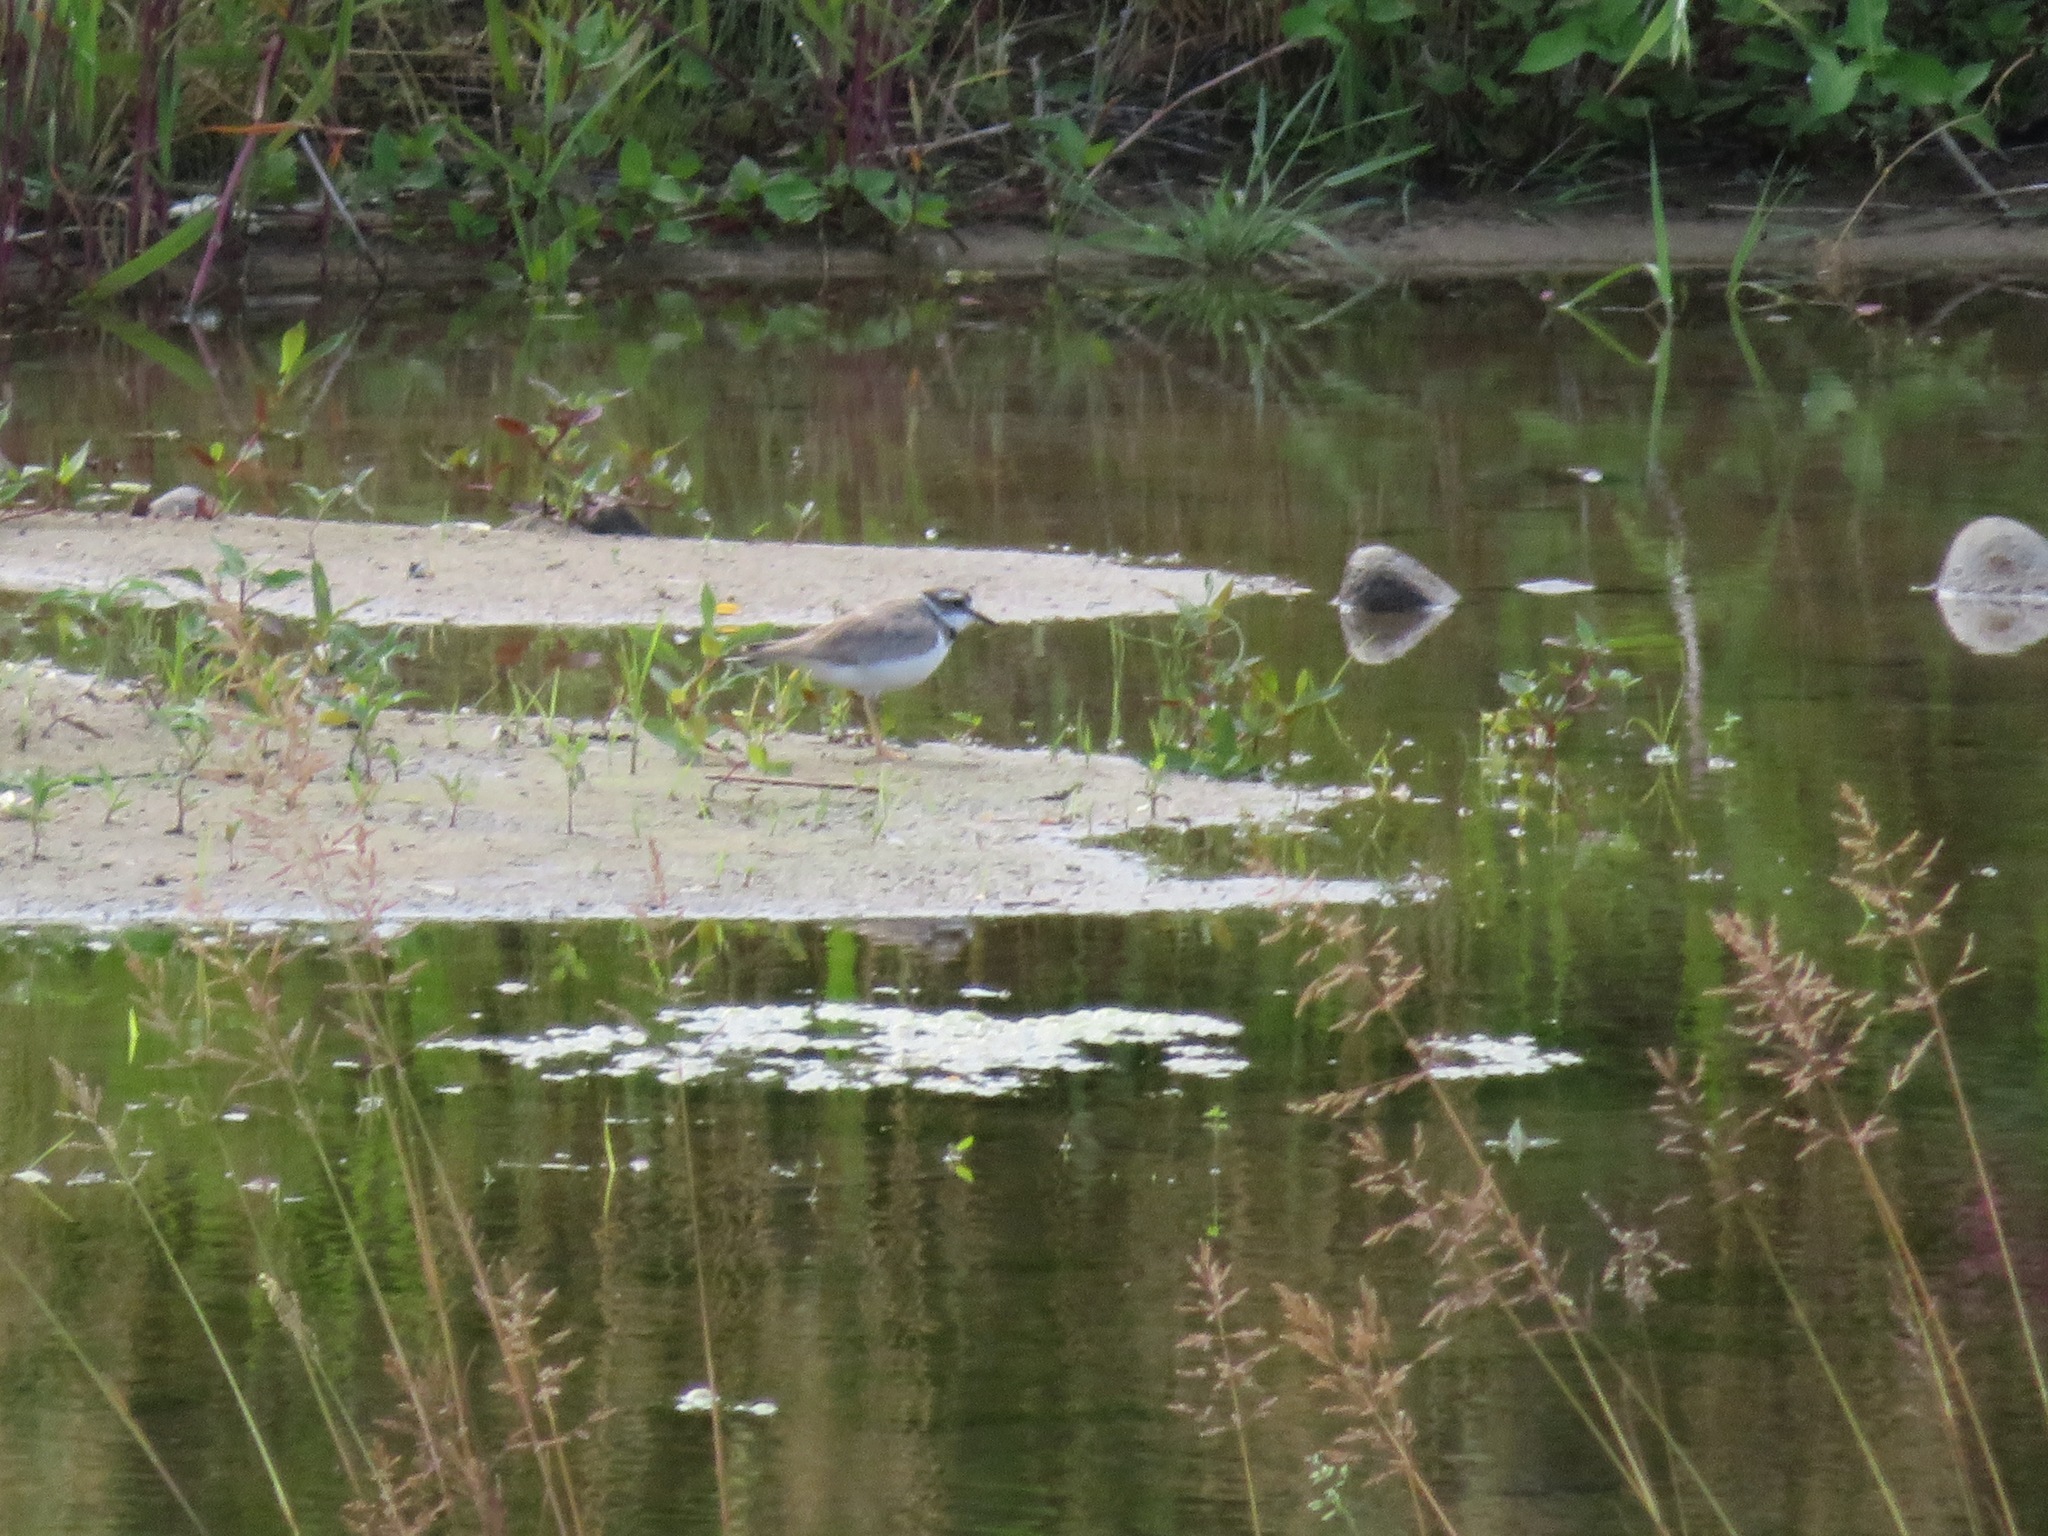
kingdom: Animalia
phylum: Chordata
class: Aves
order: Charadriiformes
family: Charadriidae
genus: Charadrius
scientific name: Charadrius placidus
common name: Long-billed plover
